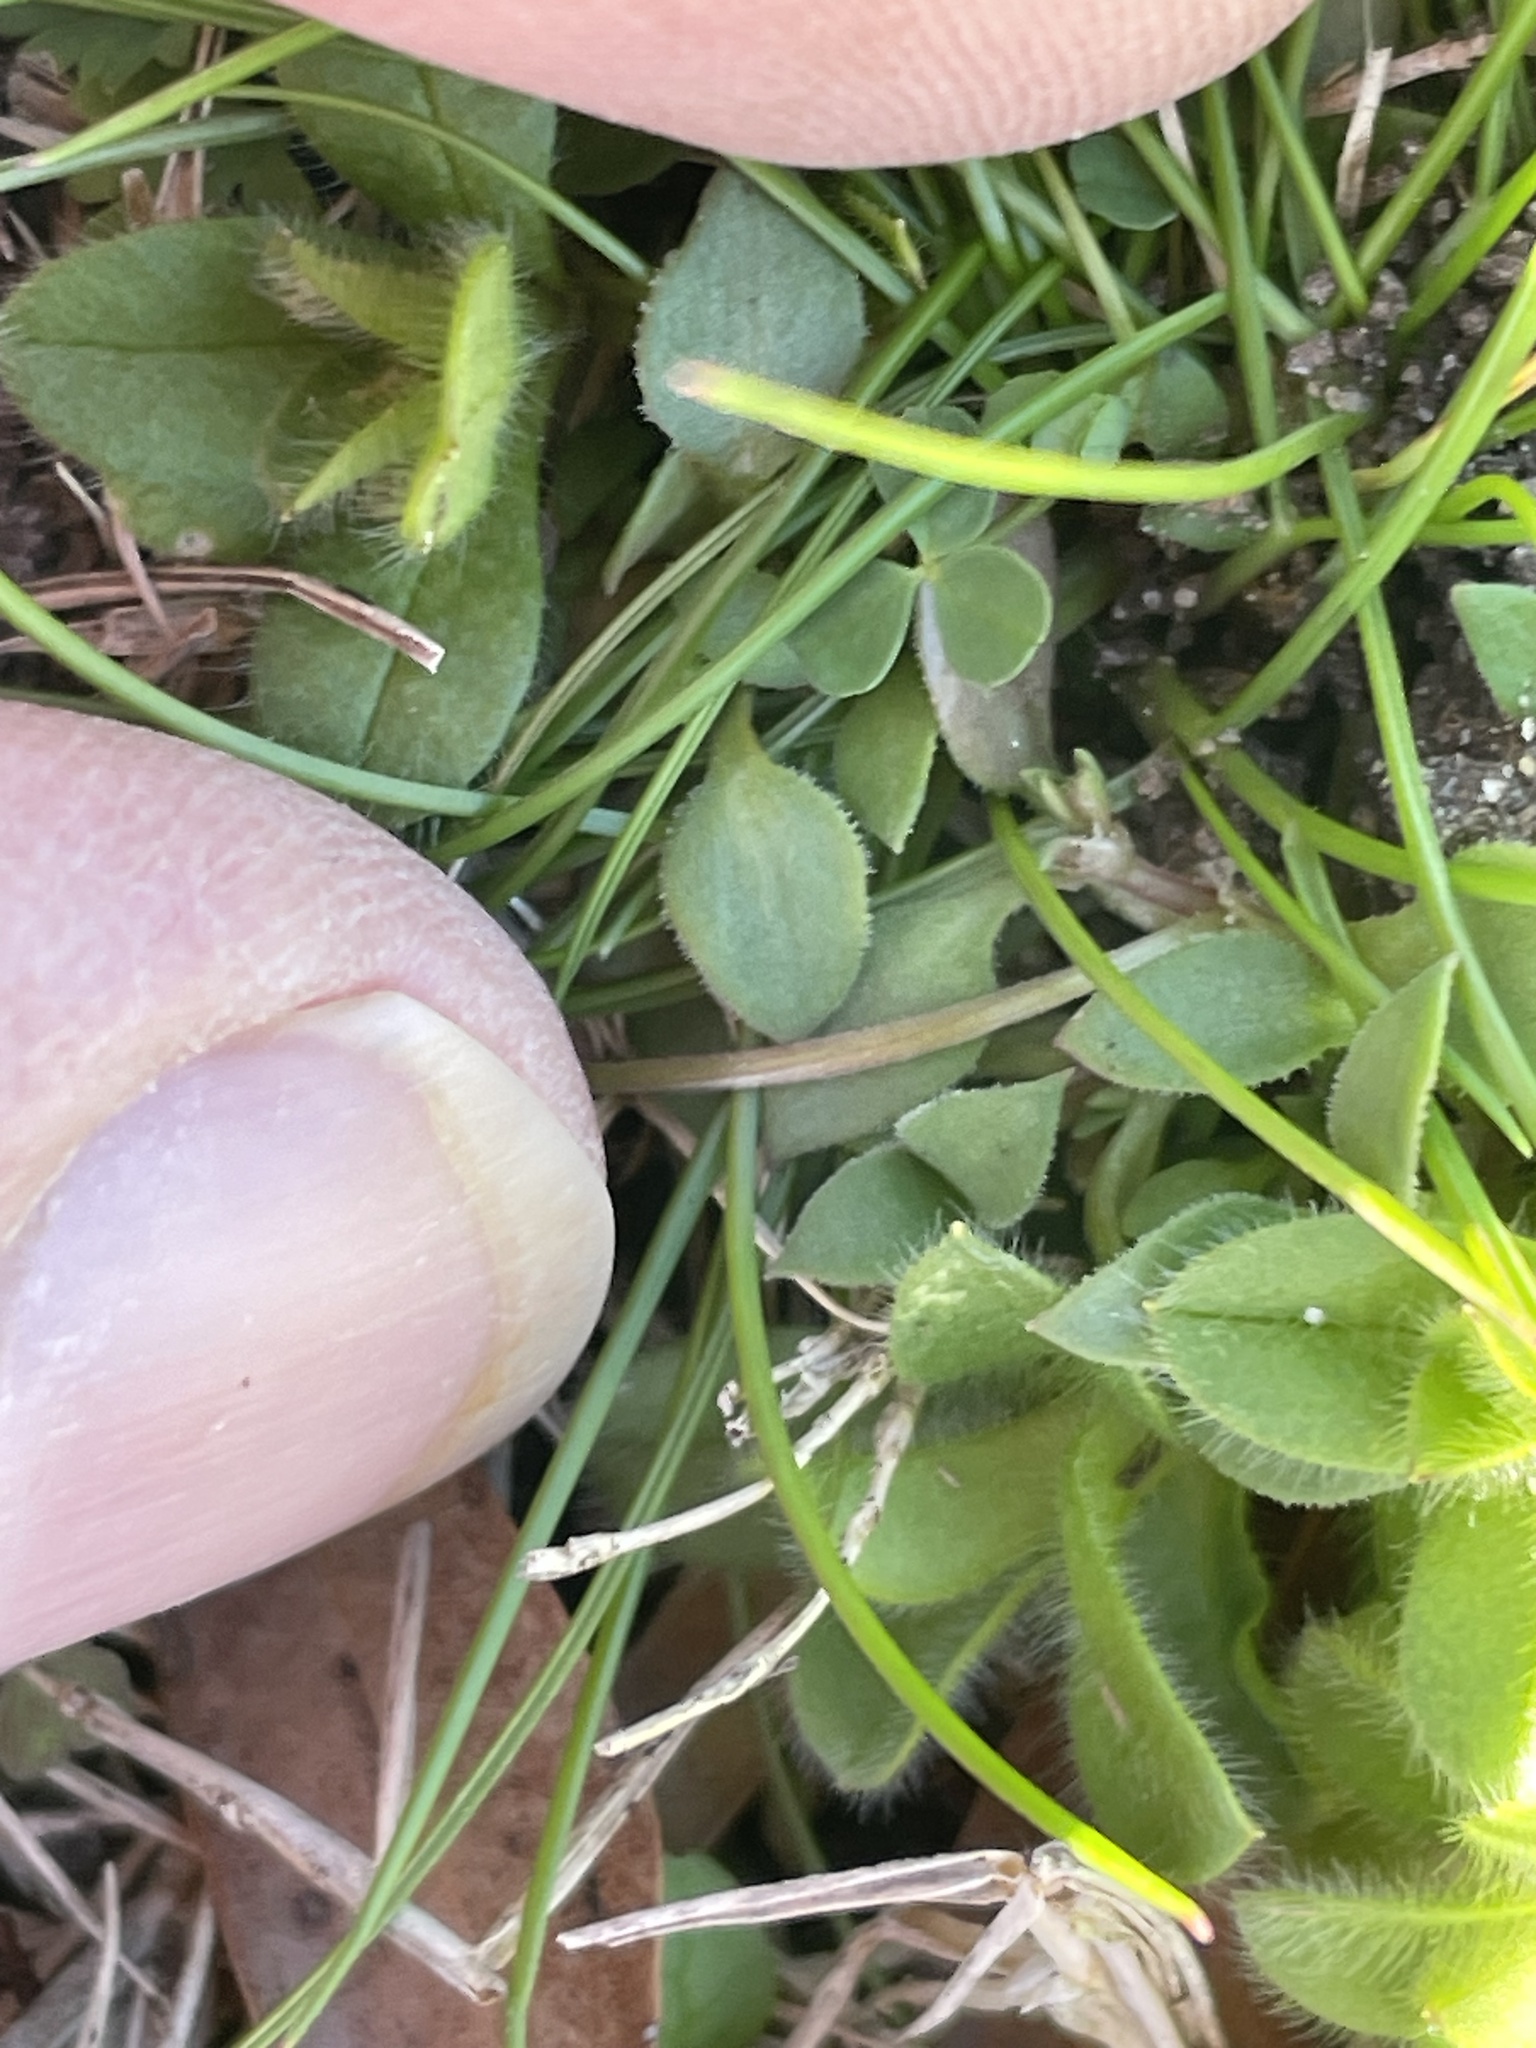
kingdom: Plantae
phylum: Tracheophyta
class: Magnoliopsida
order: Gentianales
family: Rubiaceae
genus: Houstonia
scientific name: Houstonia pusilla
